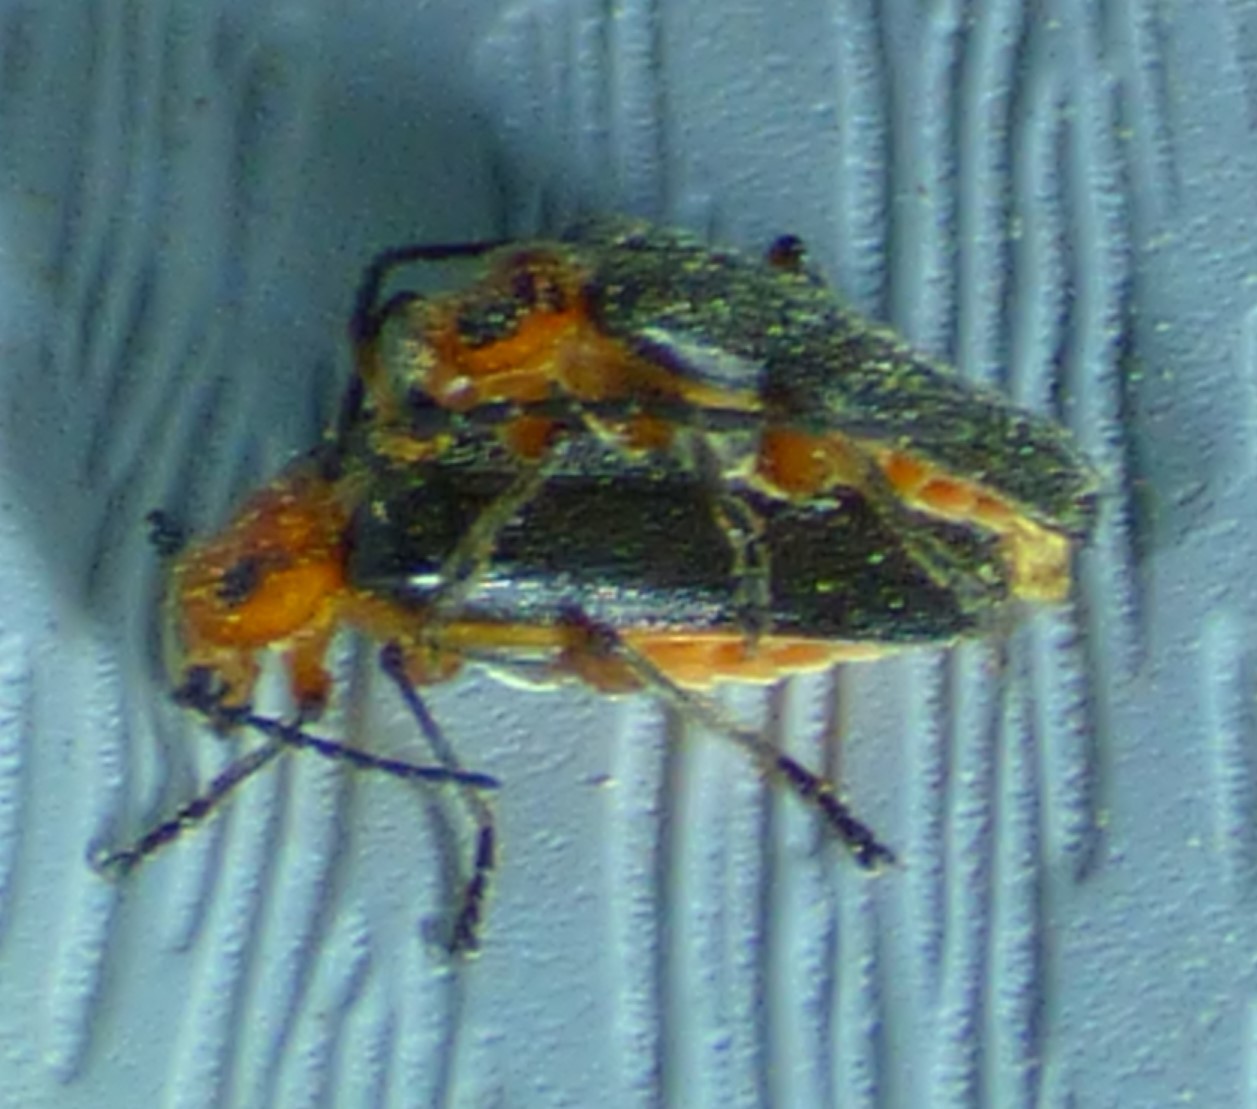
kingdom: Animalia
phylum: Arthropoda
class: Insecta
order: Coleoptera
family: Cantharidae
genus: Atalantycha
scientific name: Atalantycha bilineata
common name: Two-lined leatherwing
